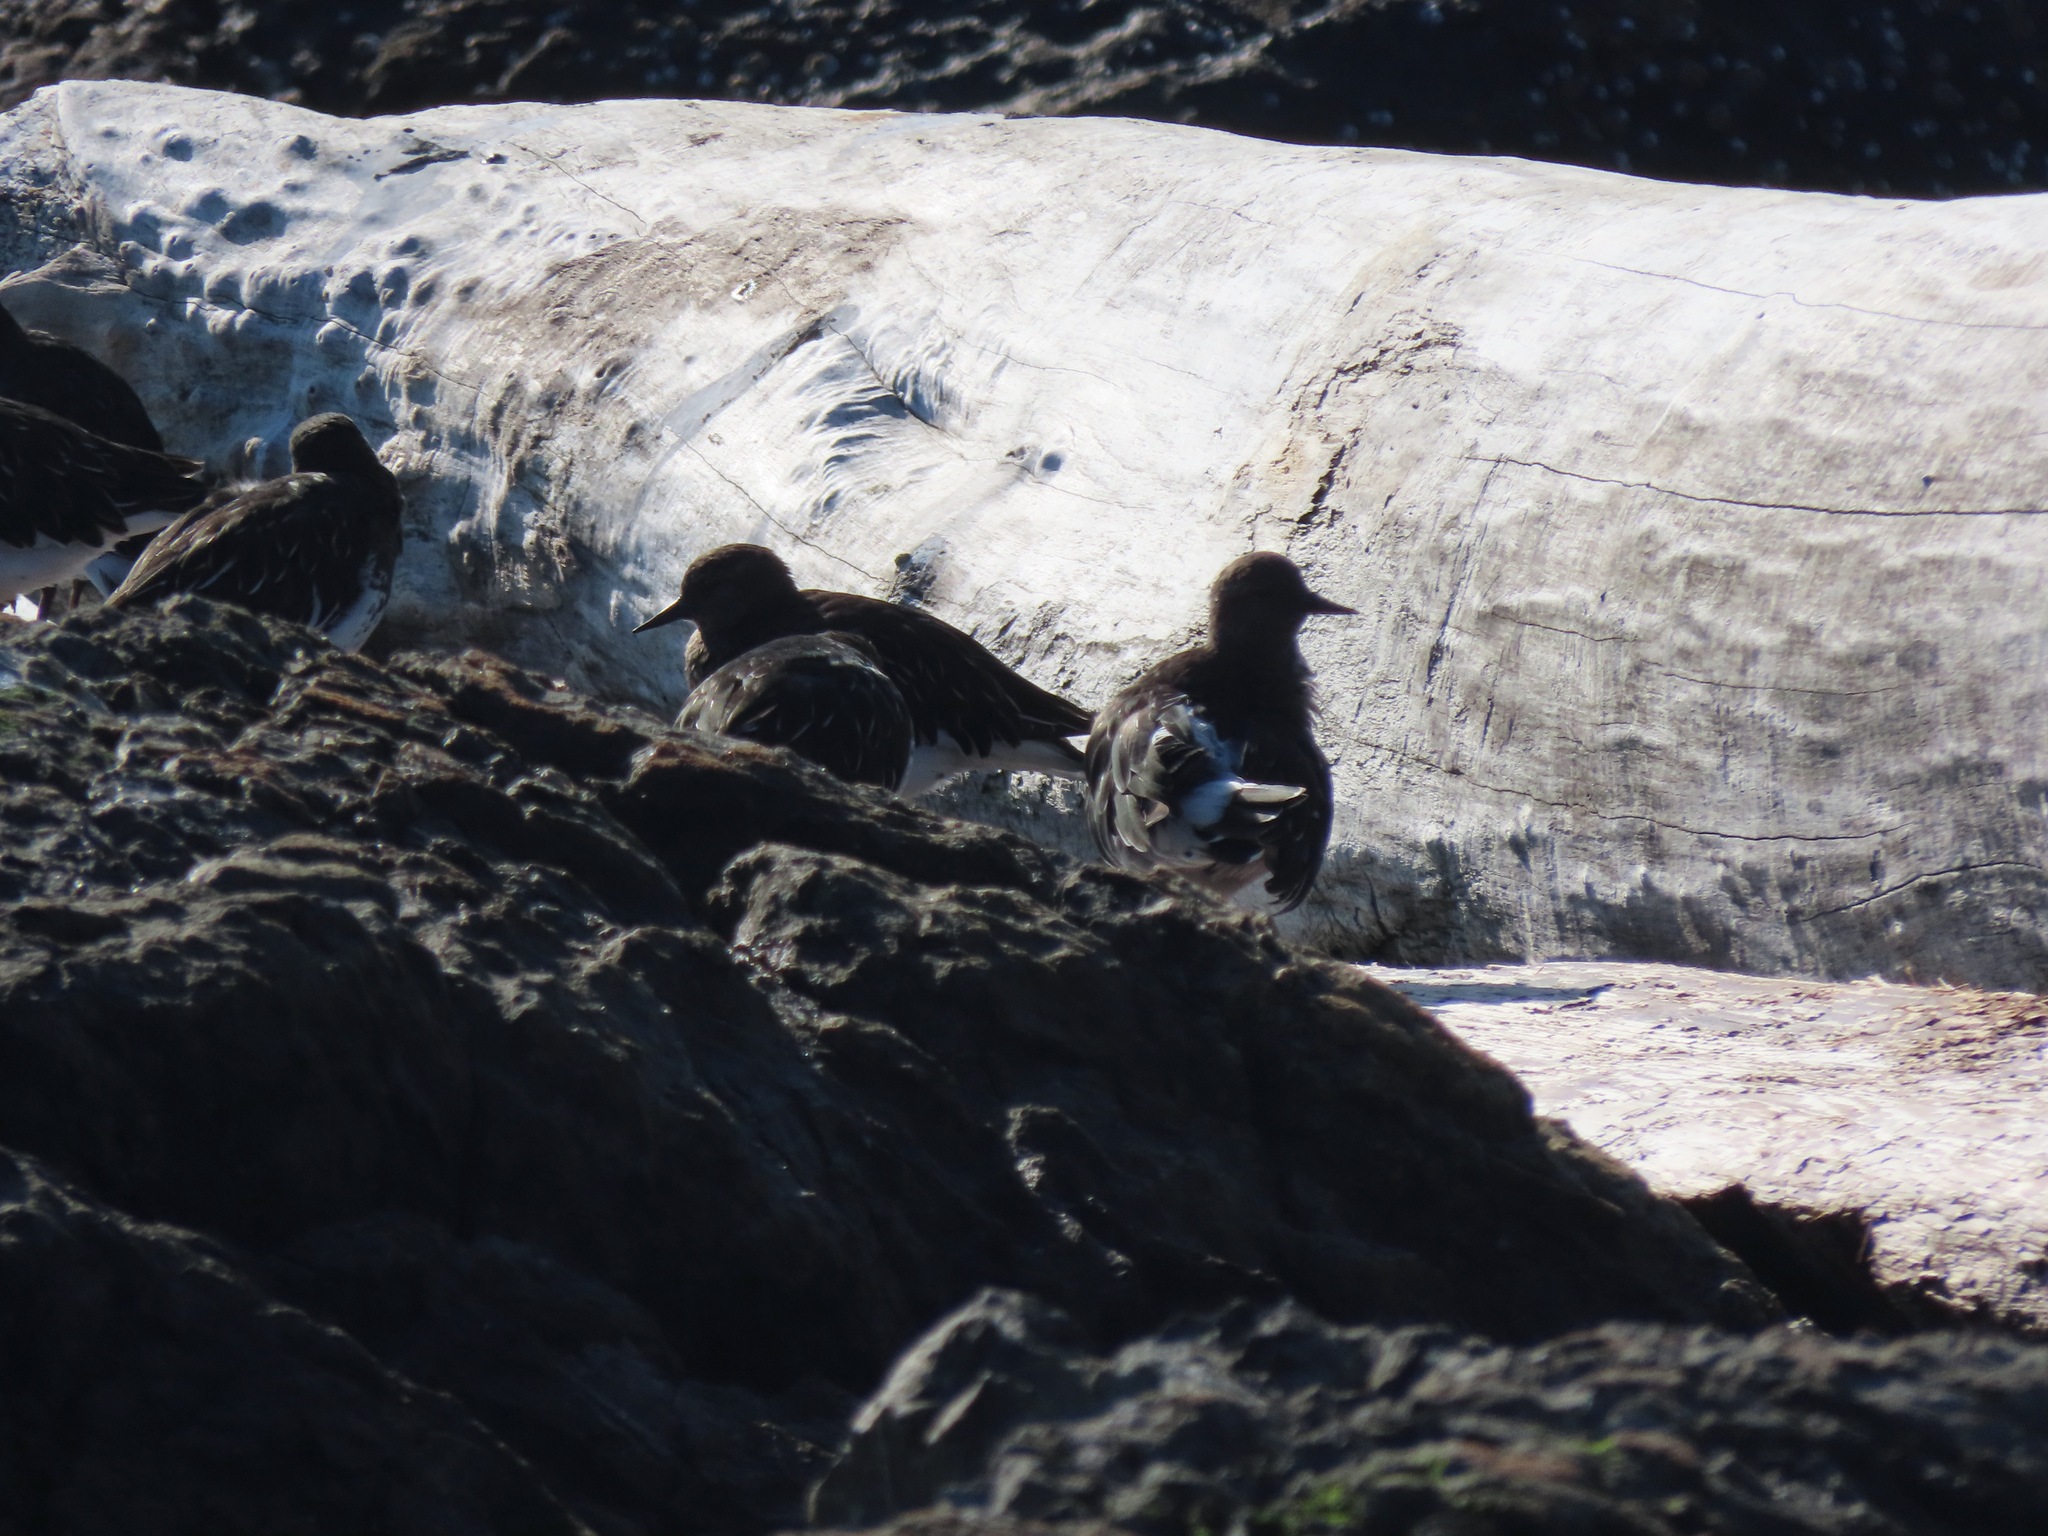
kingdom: Animalia
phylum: Chordata
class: Aves
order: Charadriiformes
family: Scolopacidae
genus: Arenaria
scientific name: Arenaria melanocephala
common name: Black turnstone
